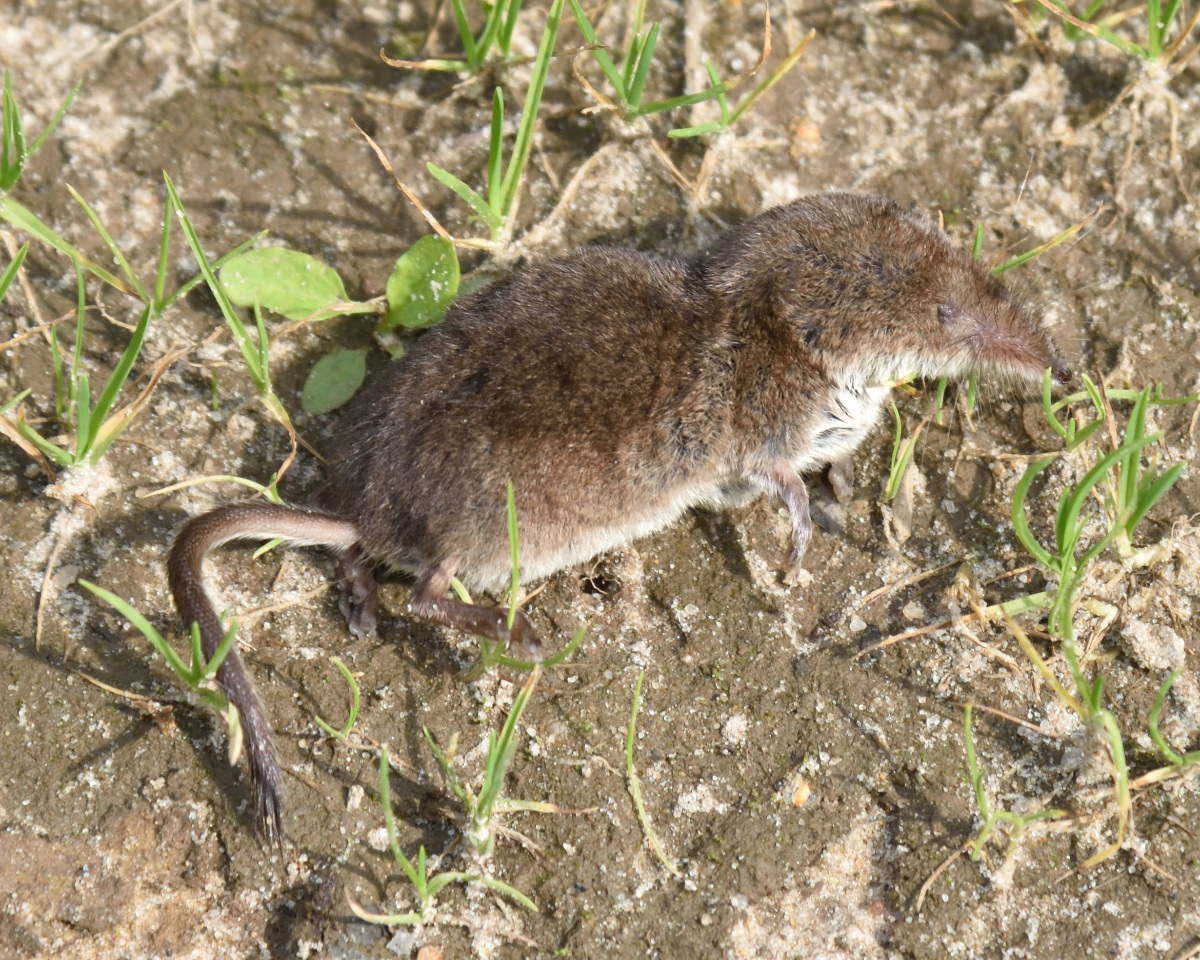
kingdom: Animalia
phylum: Chordata
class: Mammalia
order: Soricomorpha
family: Soricidae
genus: Sorex
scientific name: Sorex araneus
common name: Common shrew
